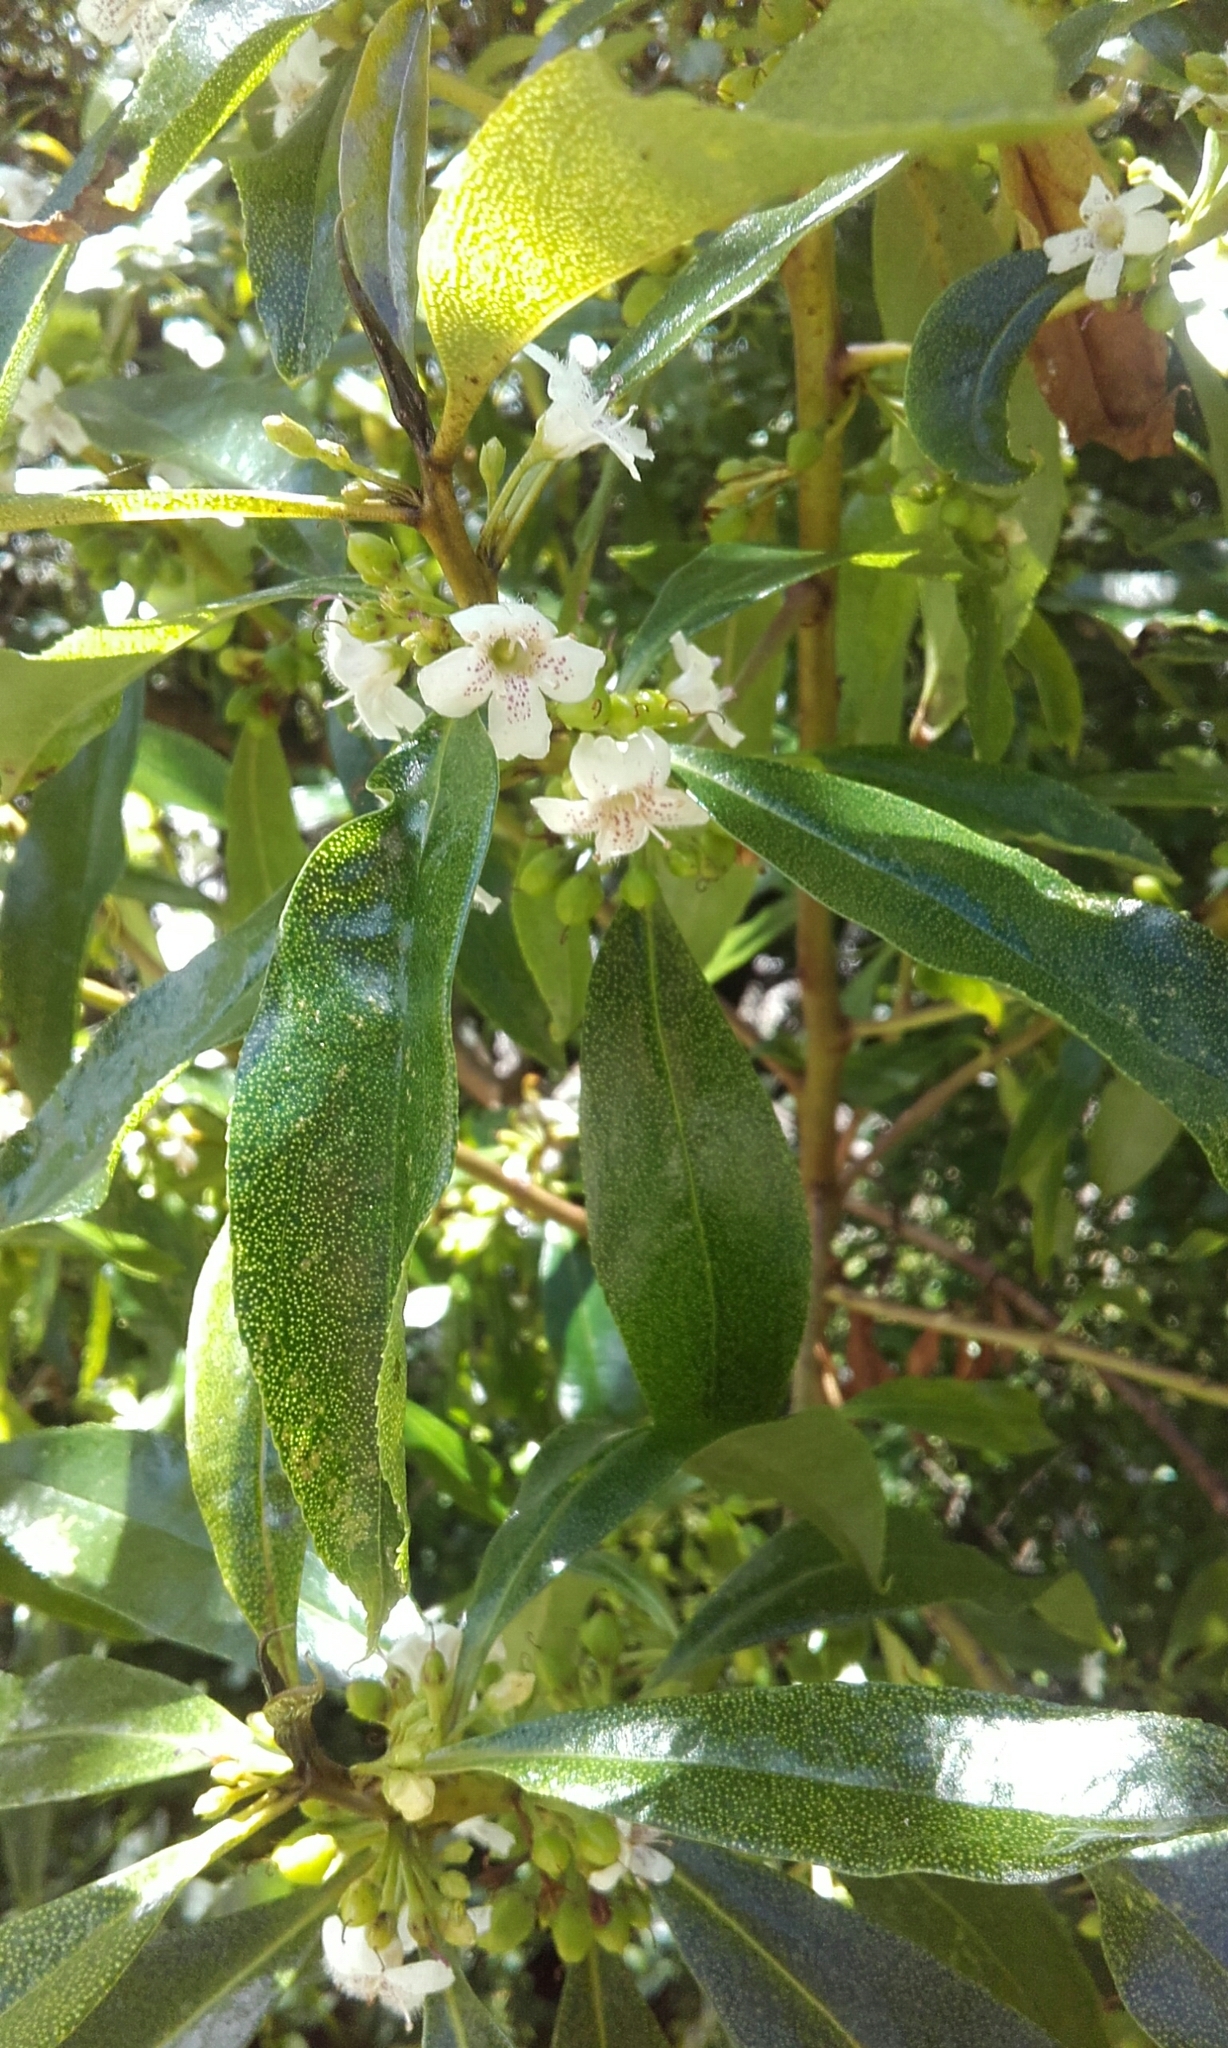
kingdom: Plantae
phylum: Tracheophyta
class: Magnoliopsida
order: Lamiales
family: Scrophulariaceae
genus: Myoporum
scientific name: Myoporum laetum
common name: Ngaio tree
